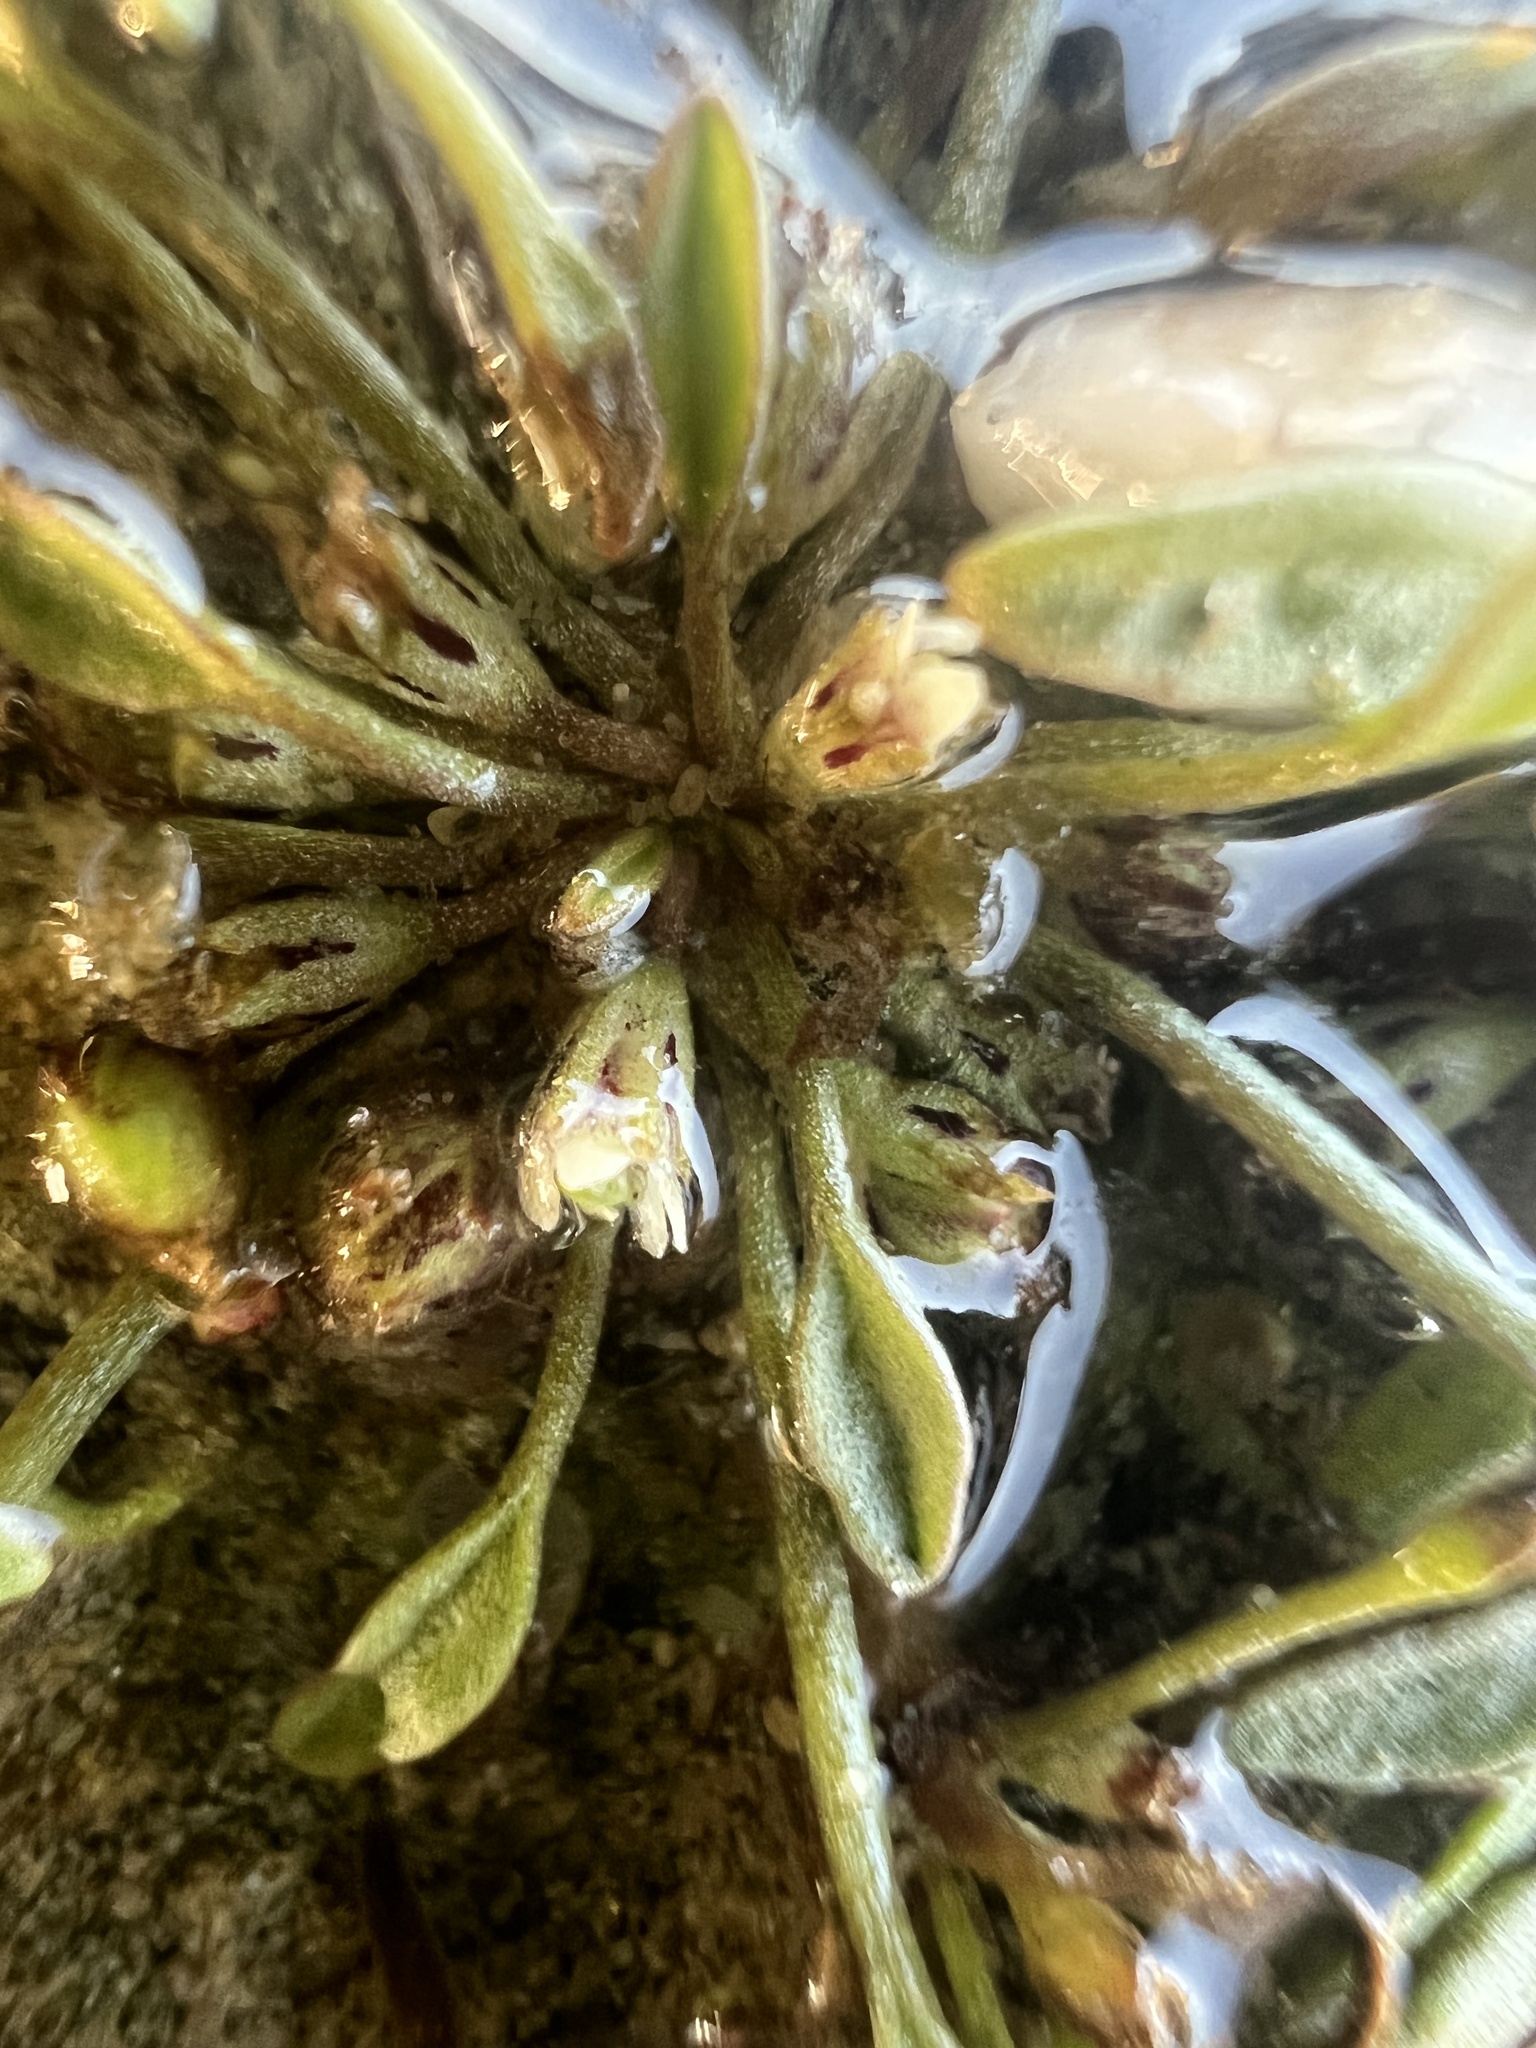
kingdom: Plantae
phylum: Tracheophyta
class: Magnoliopsida
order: Lamiales
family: Scrophulariaceae
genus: Limosella
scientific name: Limosella aquatica
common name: Mudwort
